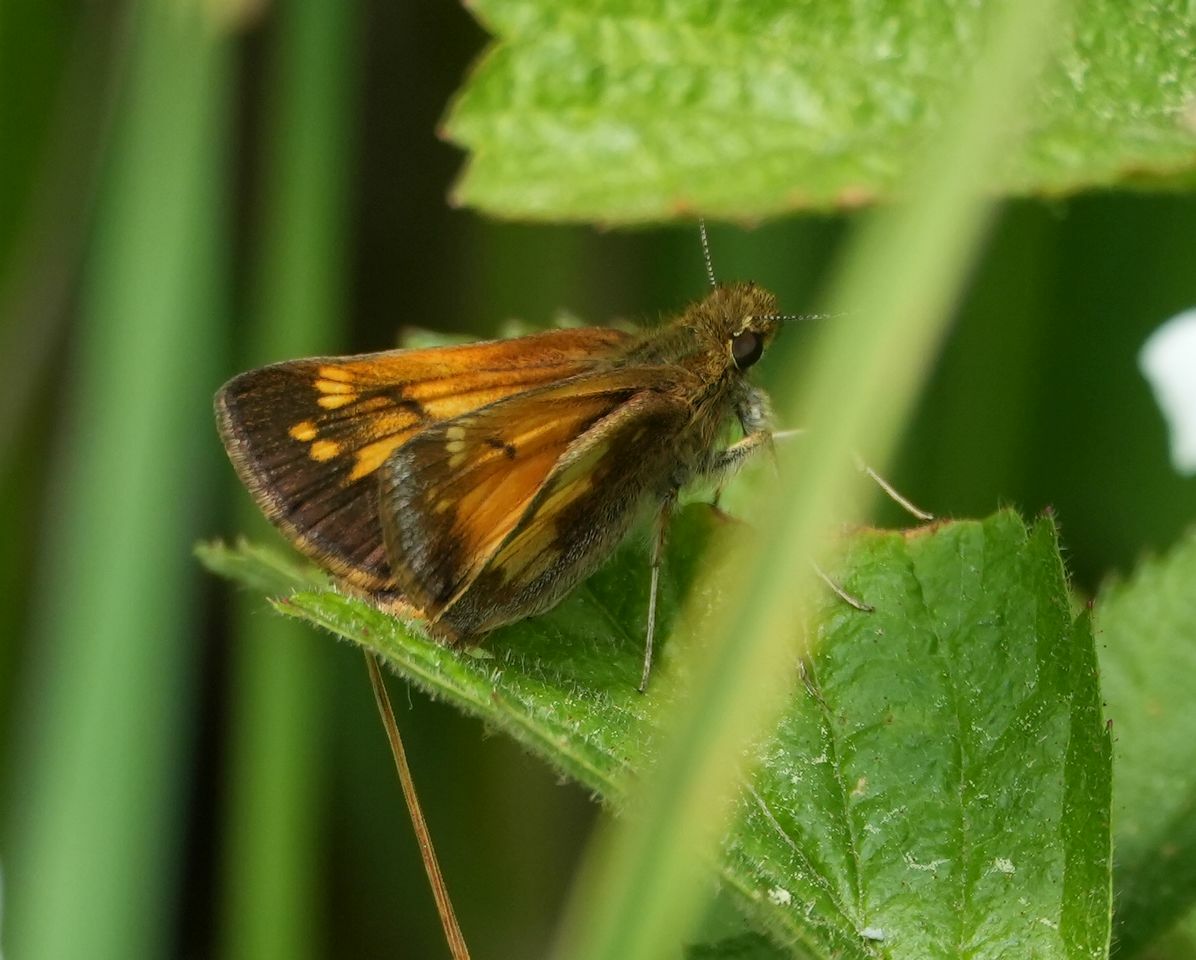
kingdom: Animalia
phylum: Arthropoda
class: Insecta
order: Lepidoptera
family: Hesperiidae
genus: Lon
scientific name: Lon hobomok
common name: Hobomok skipper
